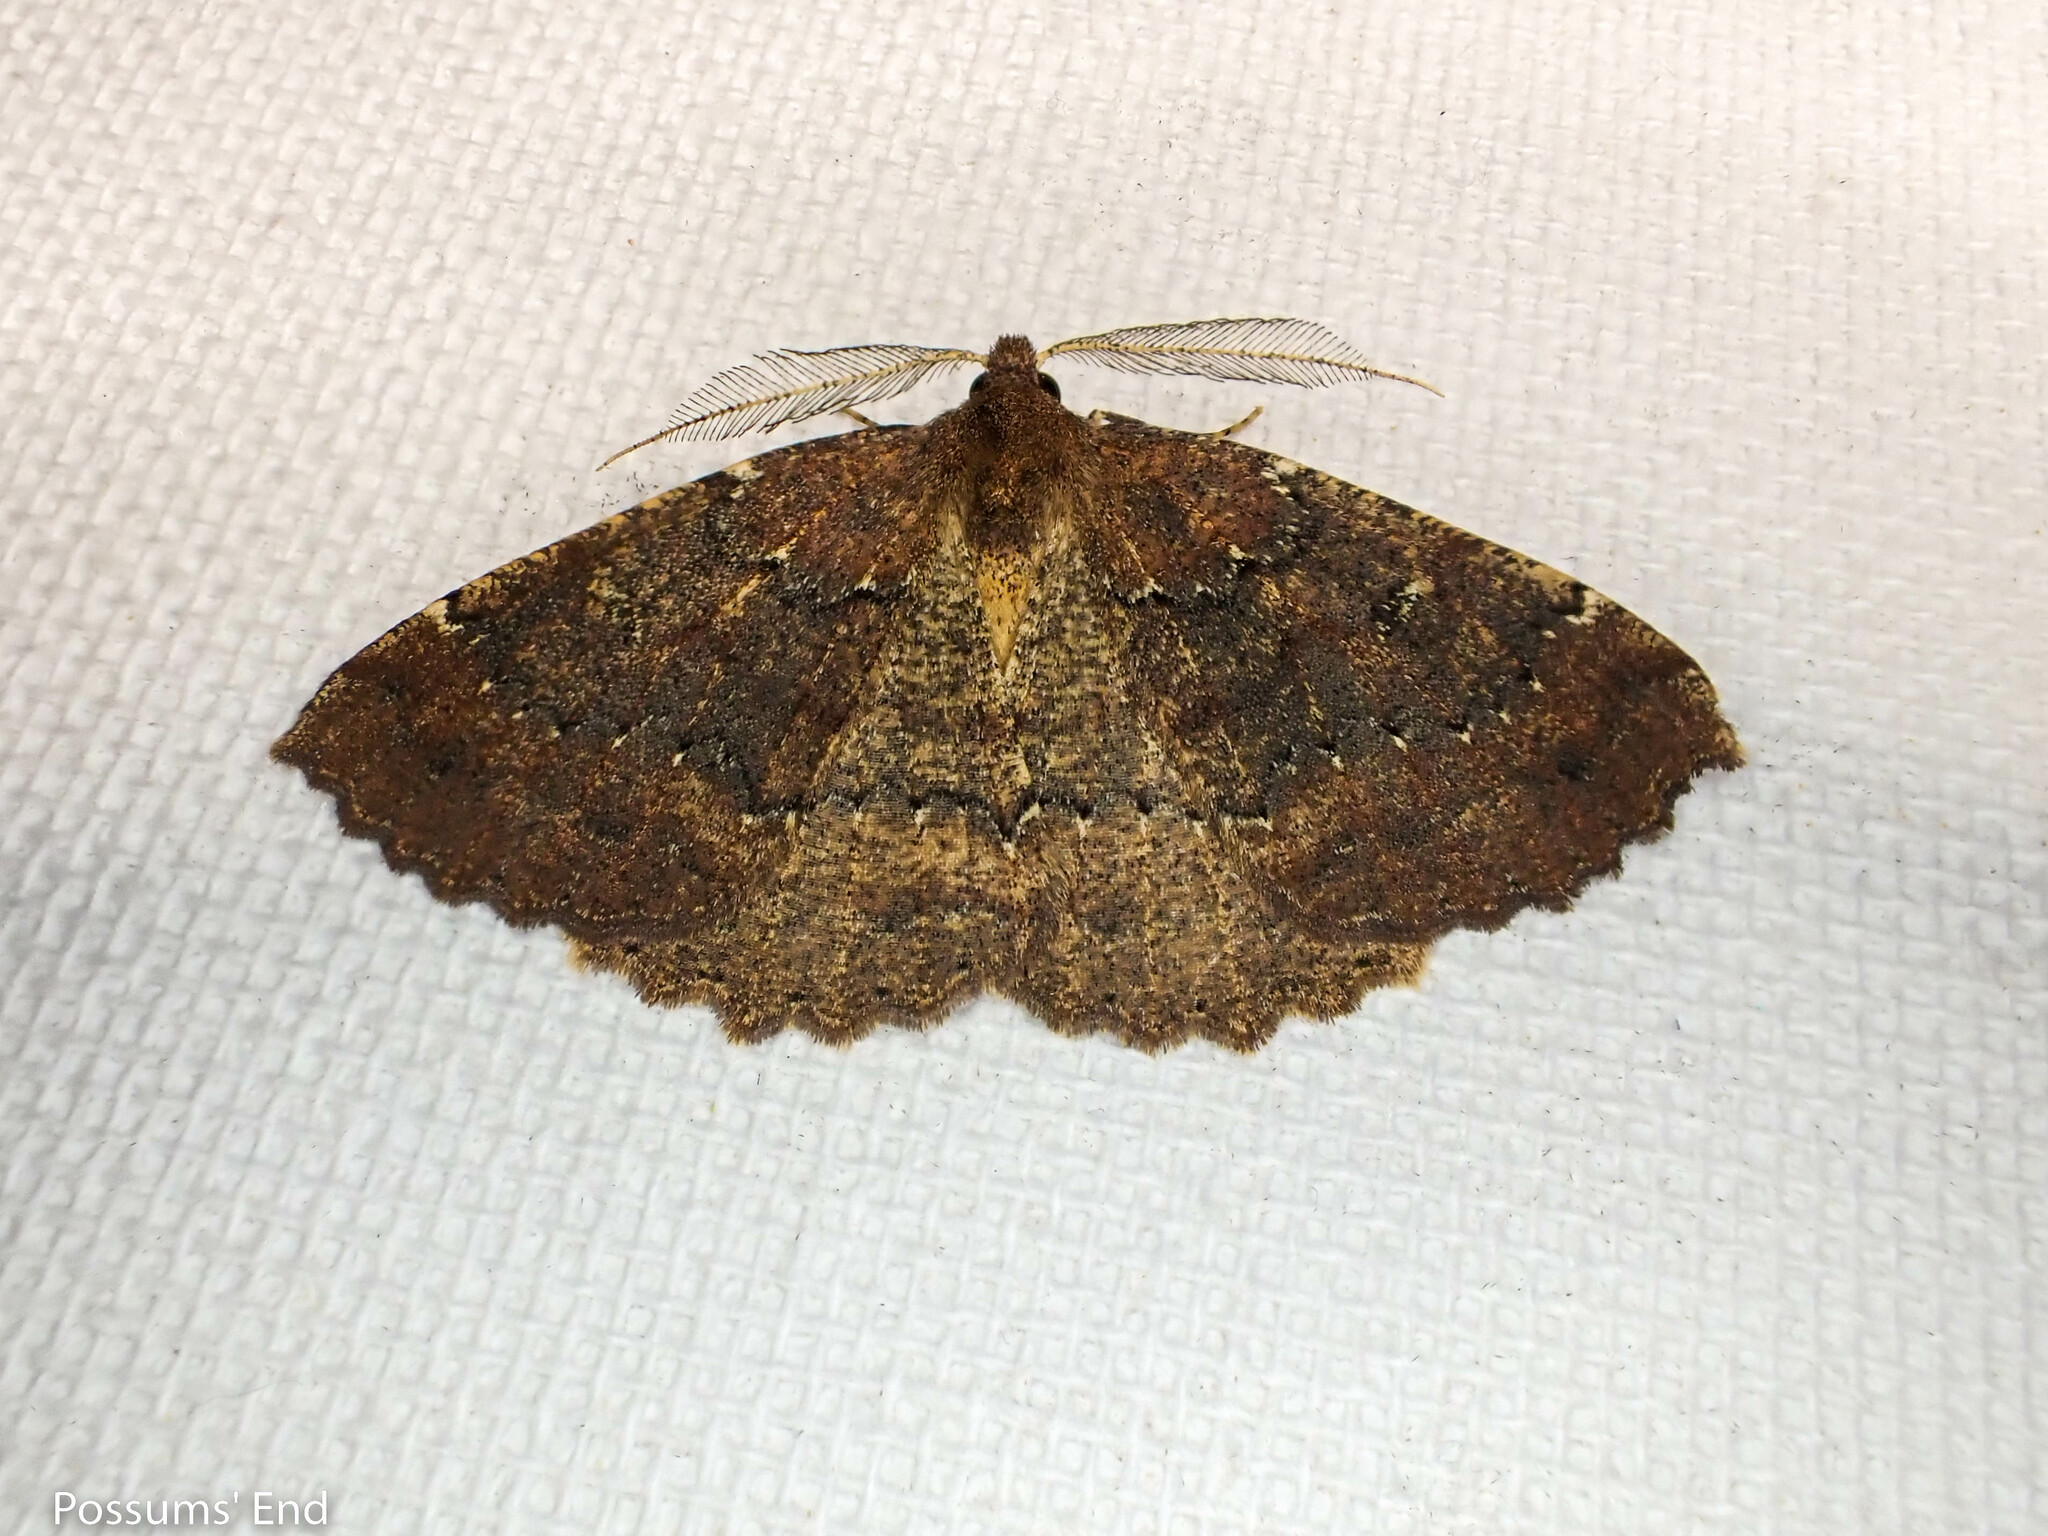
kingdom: Animalia
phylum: Arthropoda
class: Insecta
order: Lepidoptera
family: Geometridae
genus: Cleora
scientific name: Cleora scriptaria
